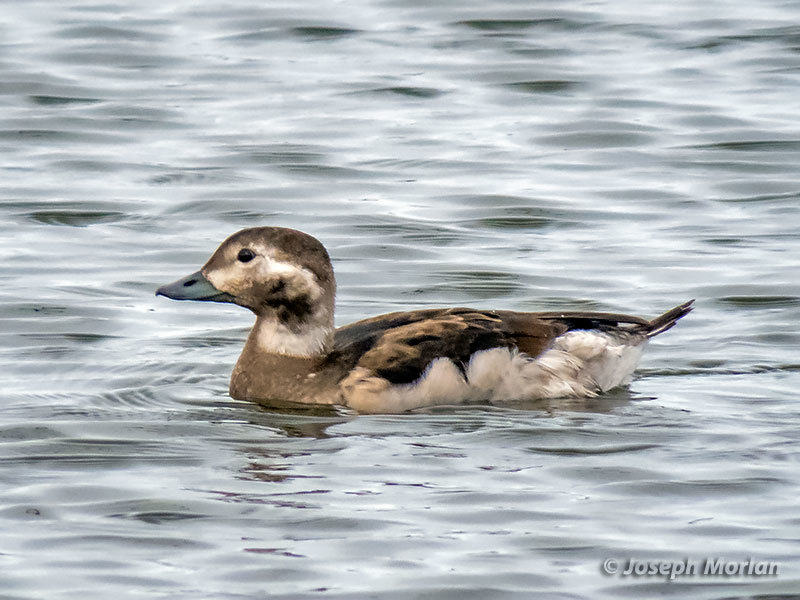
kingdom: Animalia
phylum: Chordata
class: Aves
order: Anseriformes
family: Anatidae
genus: Clangula
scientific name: Clangula hyemalis
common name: Long-tailed duck
